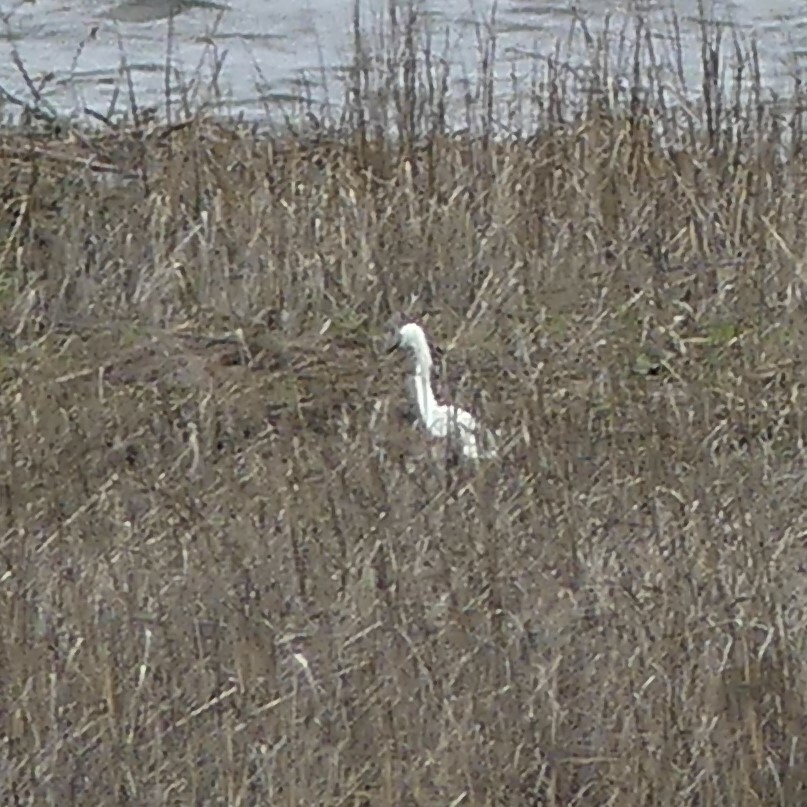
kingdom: Animalia
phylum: Chordata
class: Aves
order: Pelecaniformes
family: Ardeidae
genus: Egretta
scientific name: Egretta thula
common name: Snowy egret
